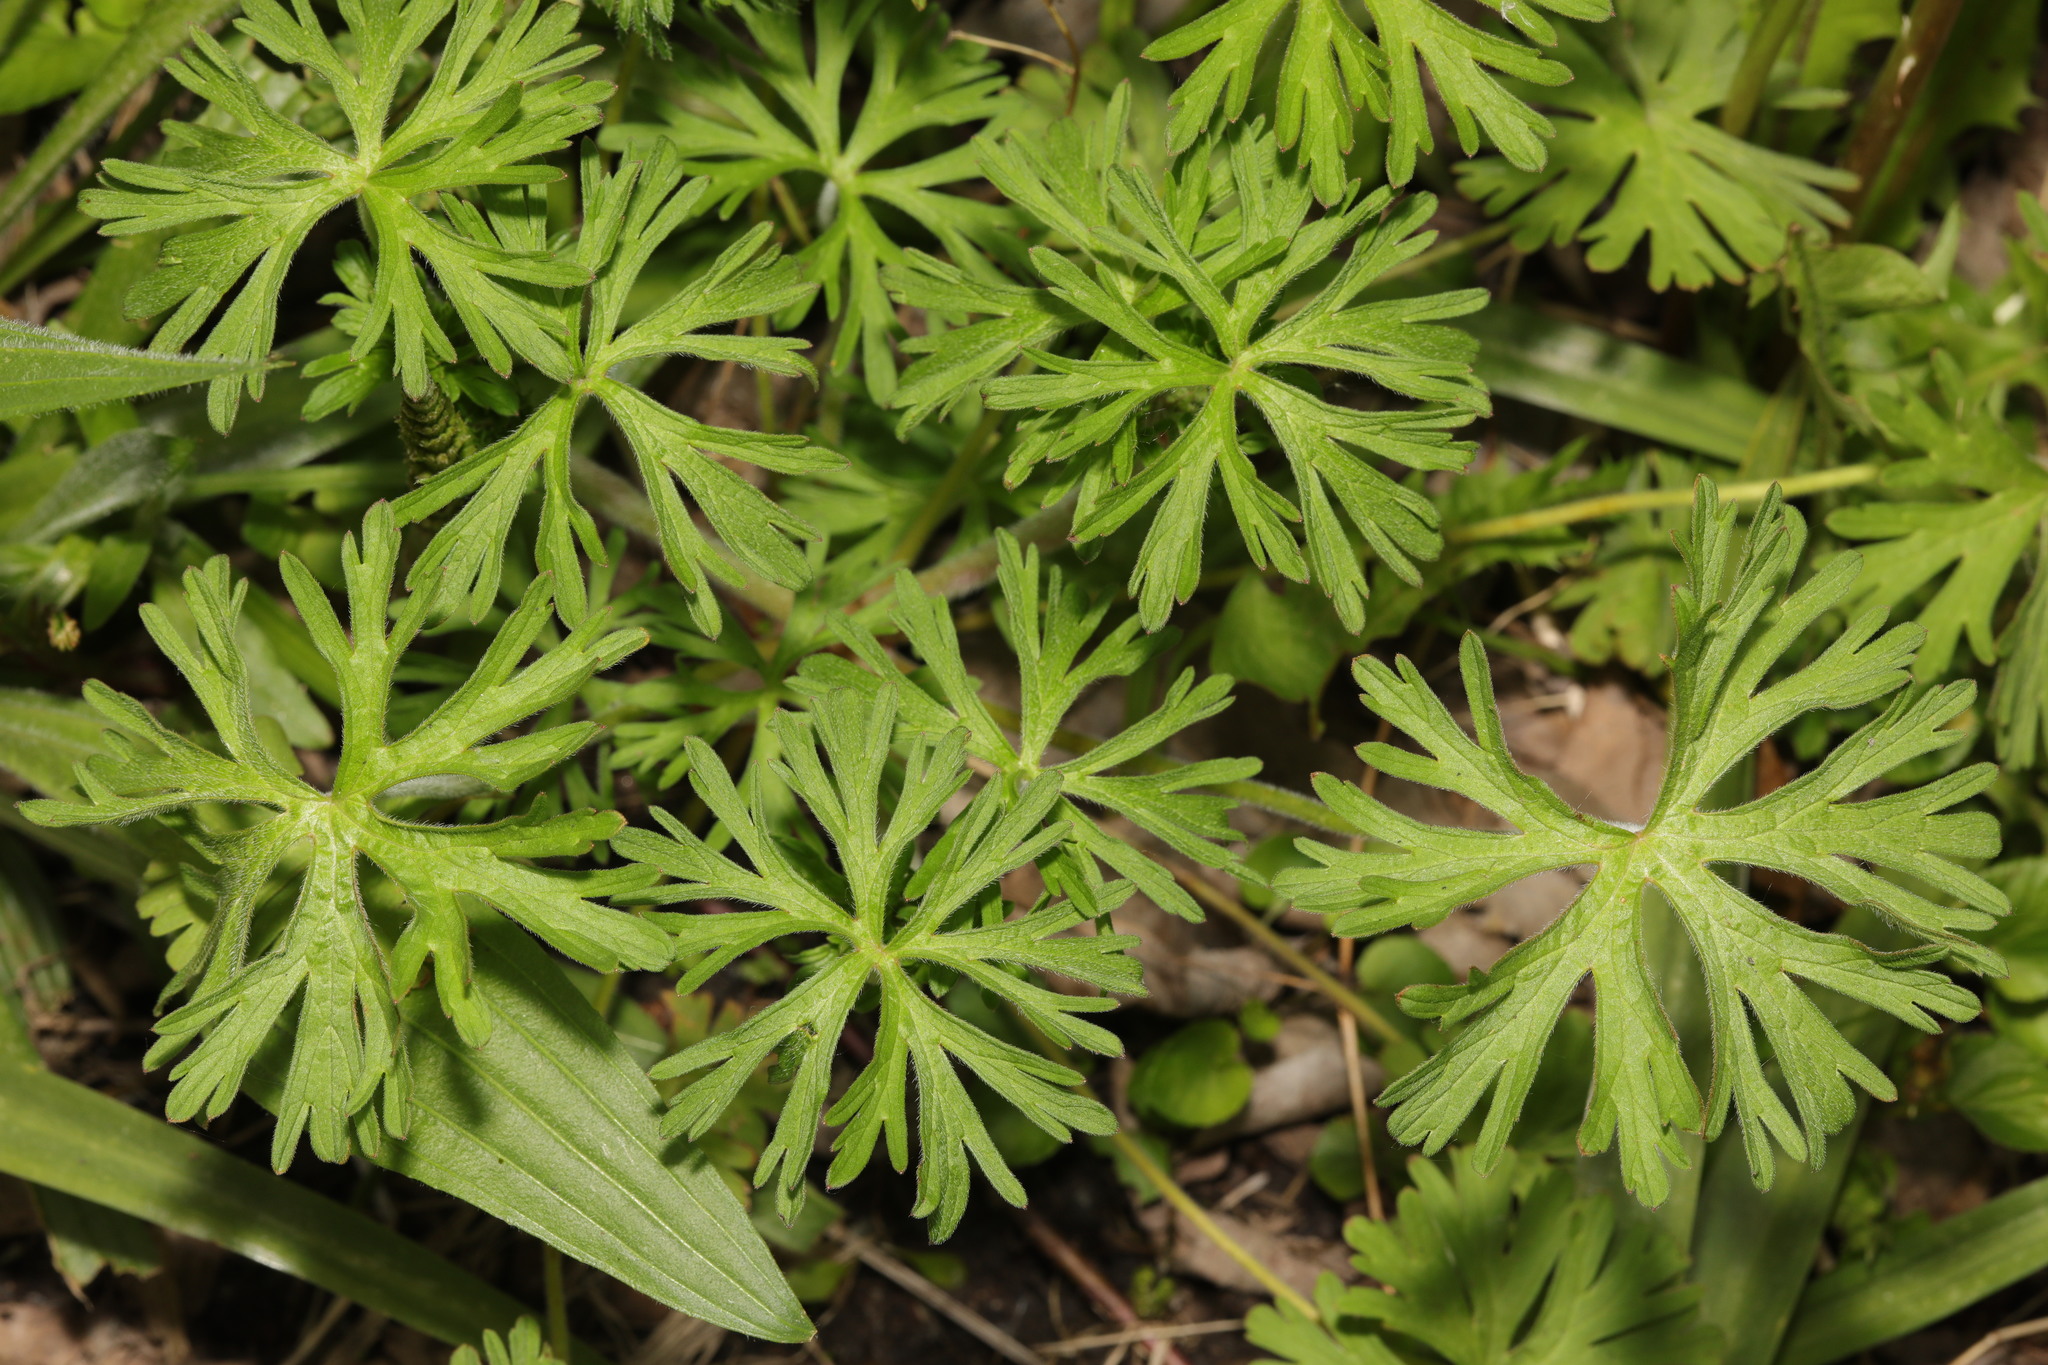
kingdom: Plantae
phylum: Tracheophyta
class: Magnoliopsida
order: Geraniales
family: Geraniaceae
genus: Geranium
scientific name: Geranium dissectum
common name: Cut-leaved crane's-bill
